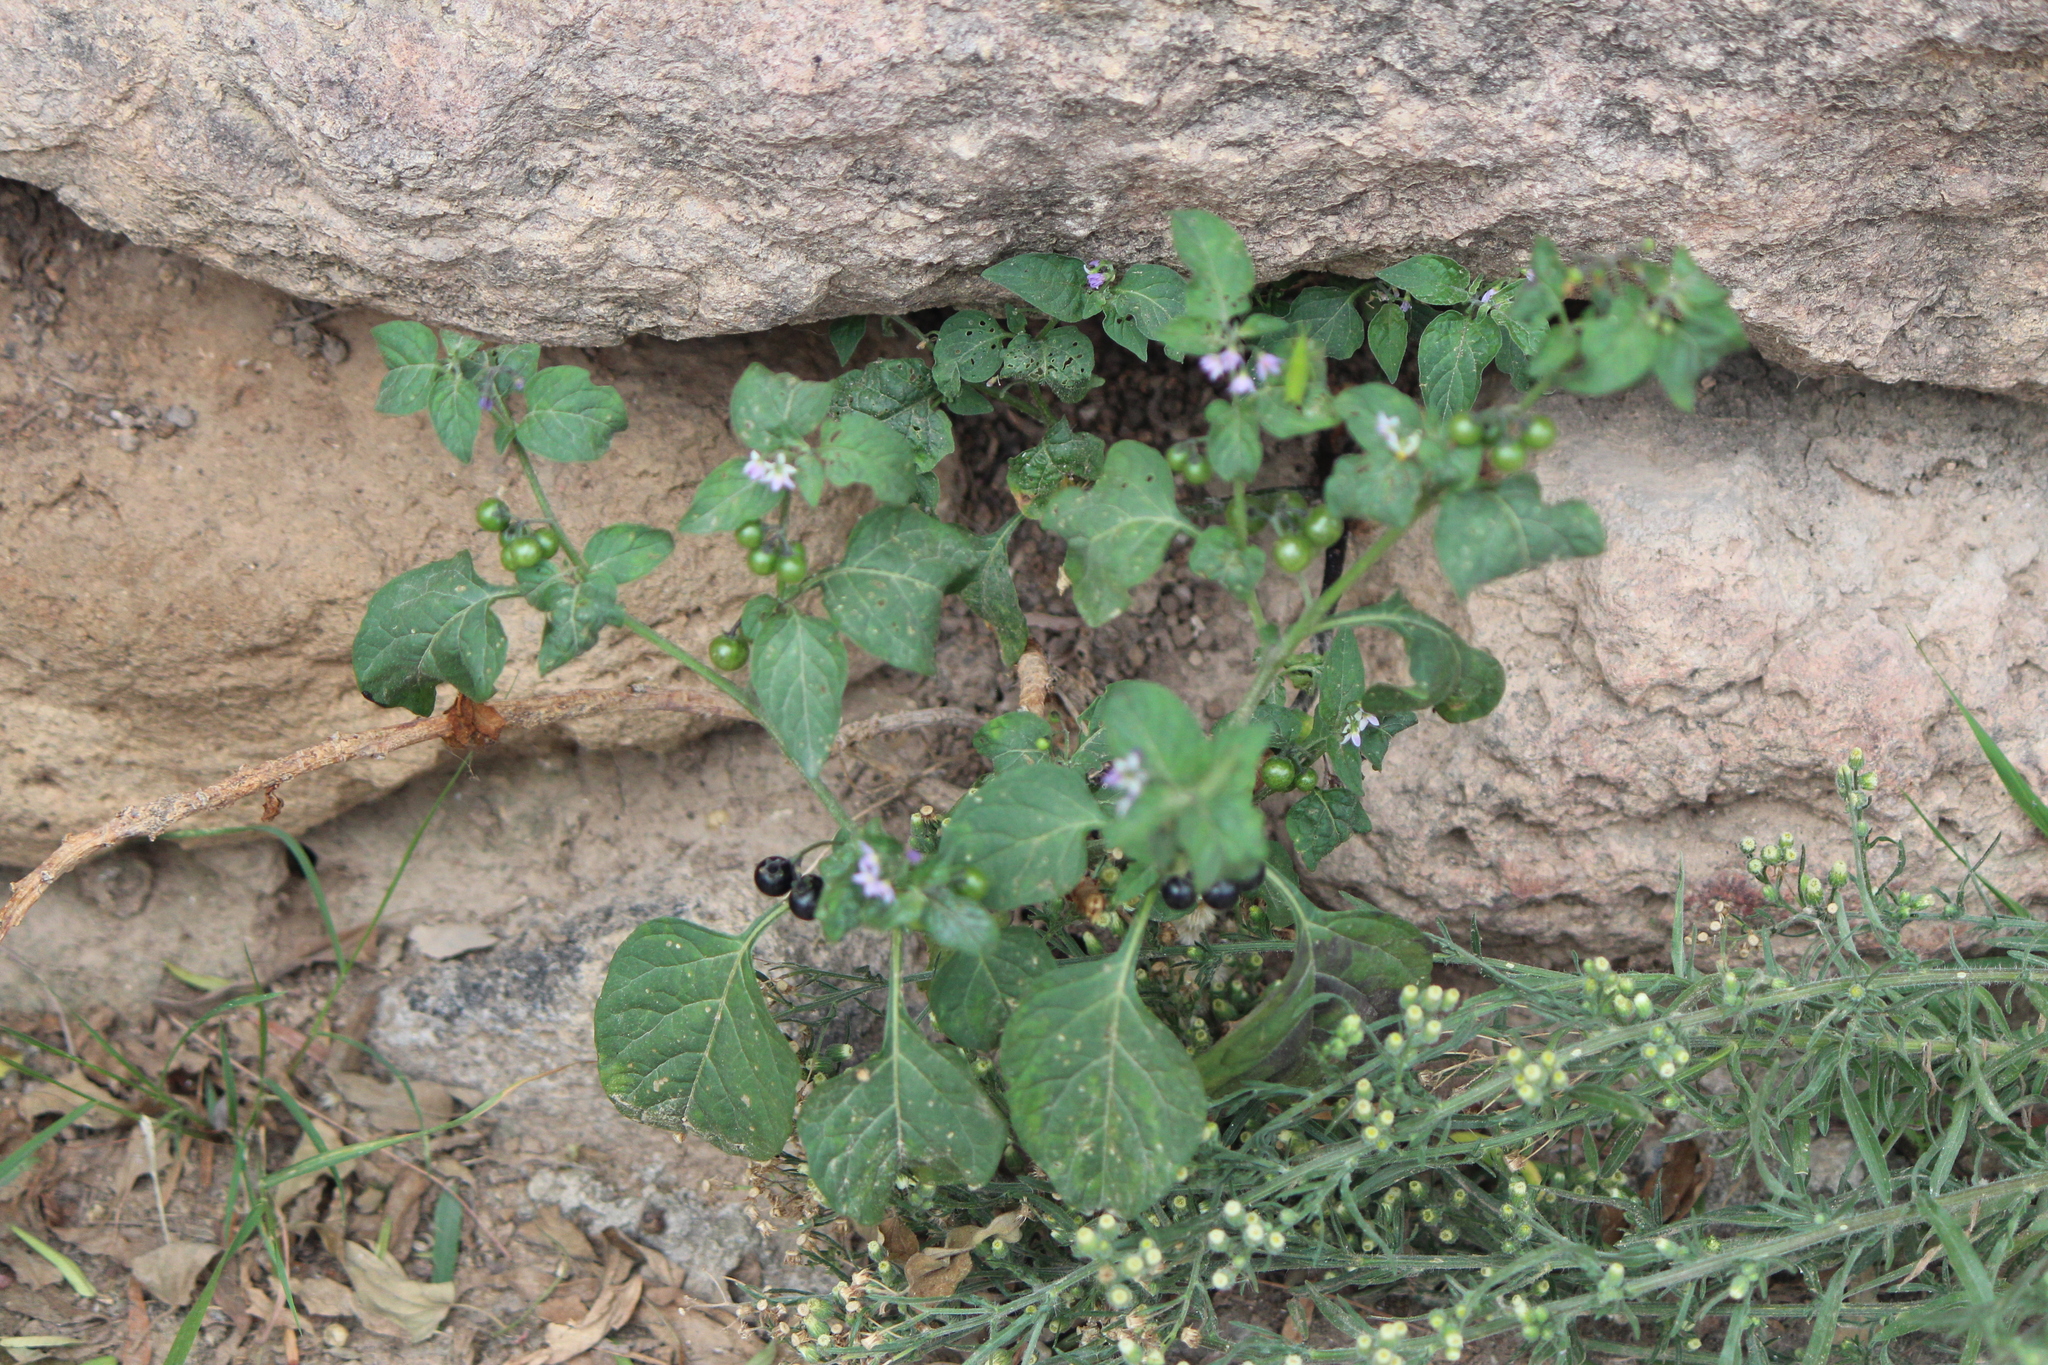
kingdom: Plantae
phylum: Tracheophyta
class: Magnoliopsida
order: Solanales
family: Solanaceae
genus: Solanum
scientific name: Solanum americanum
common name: American black nightshade
